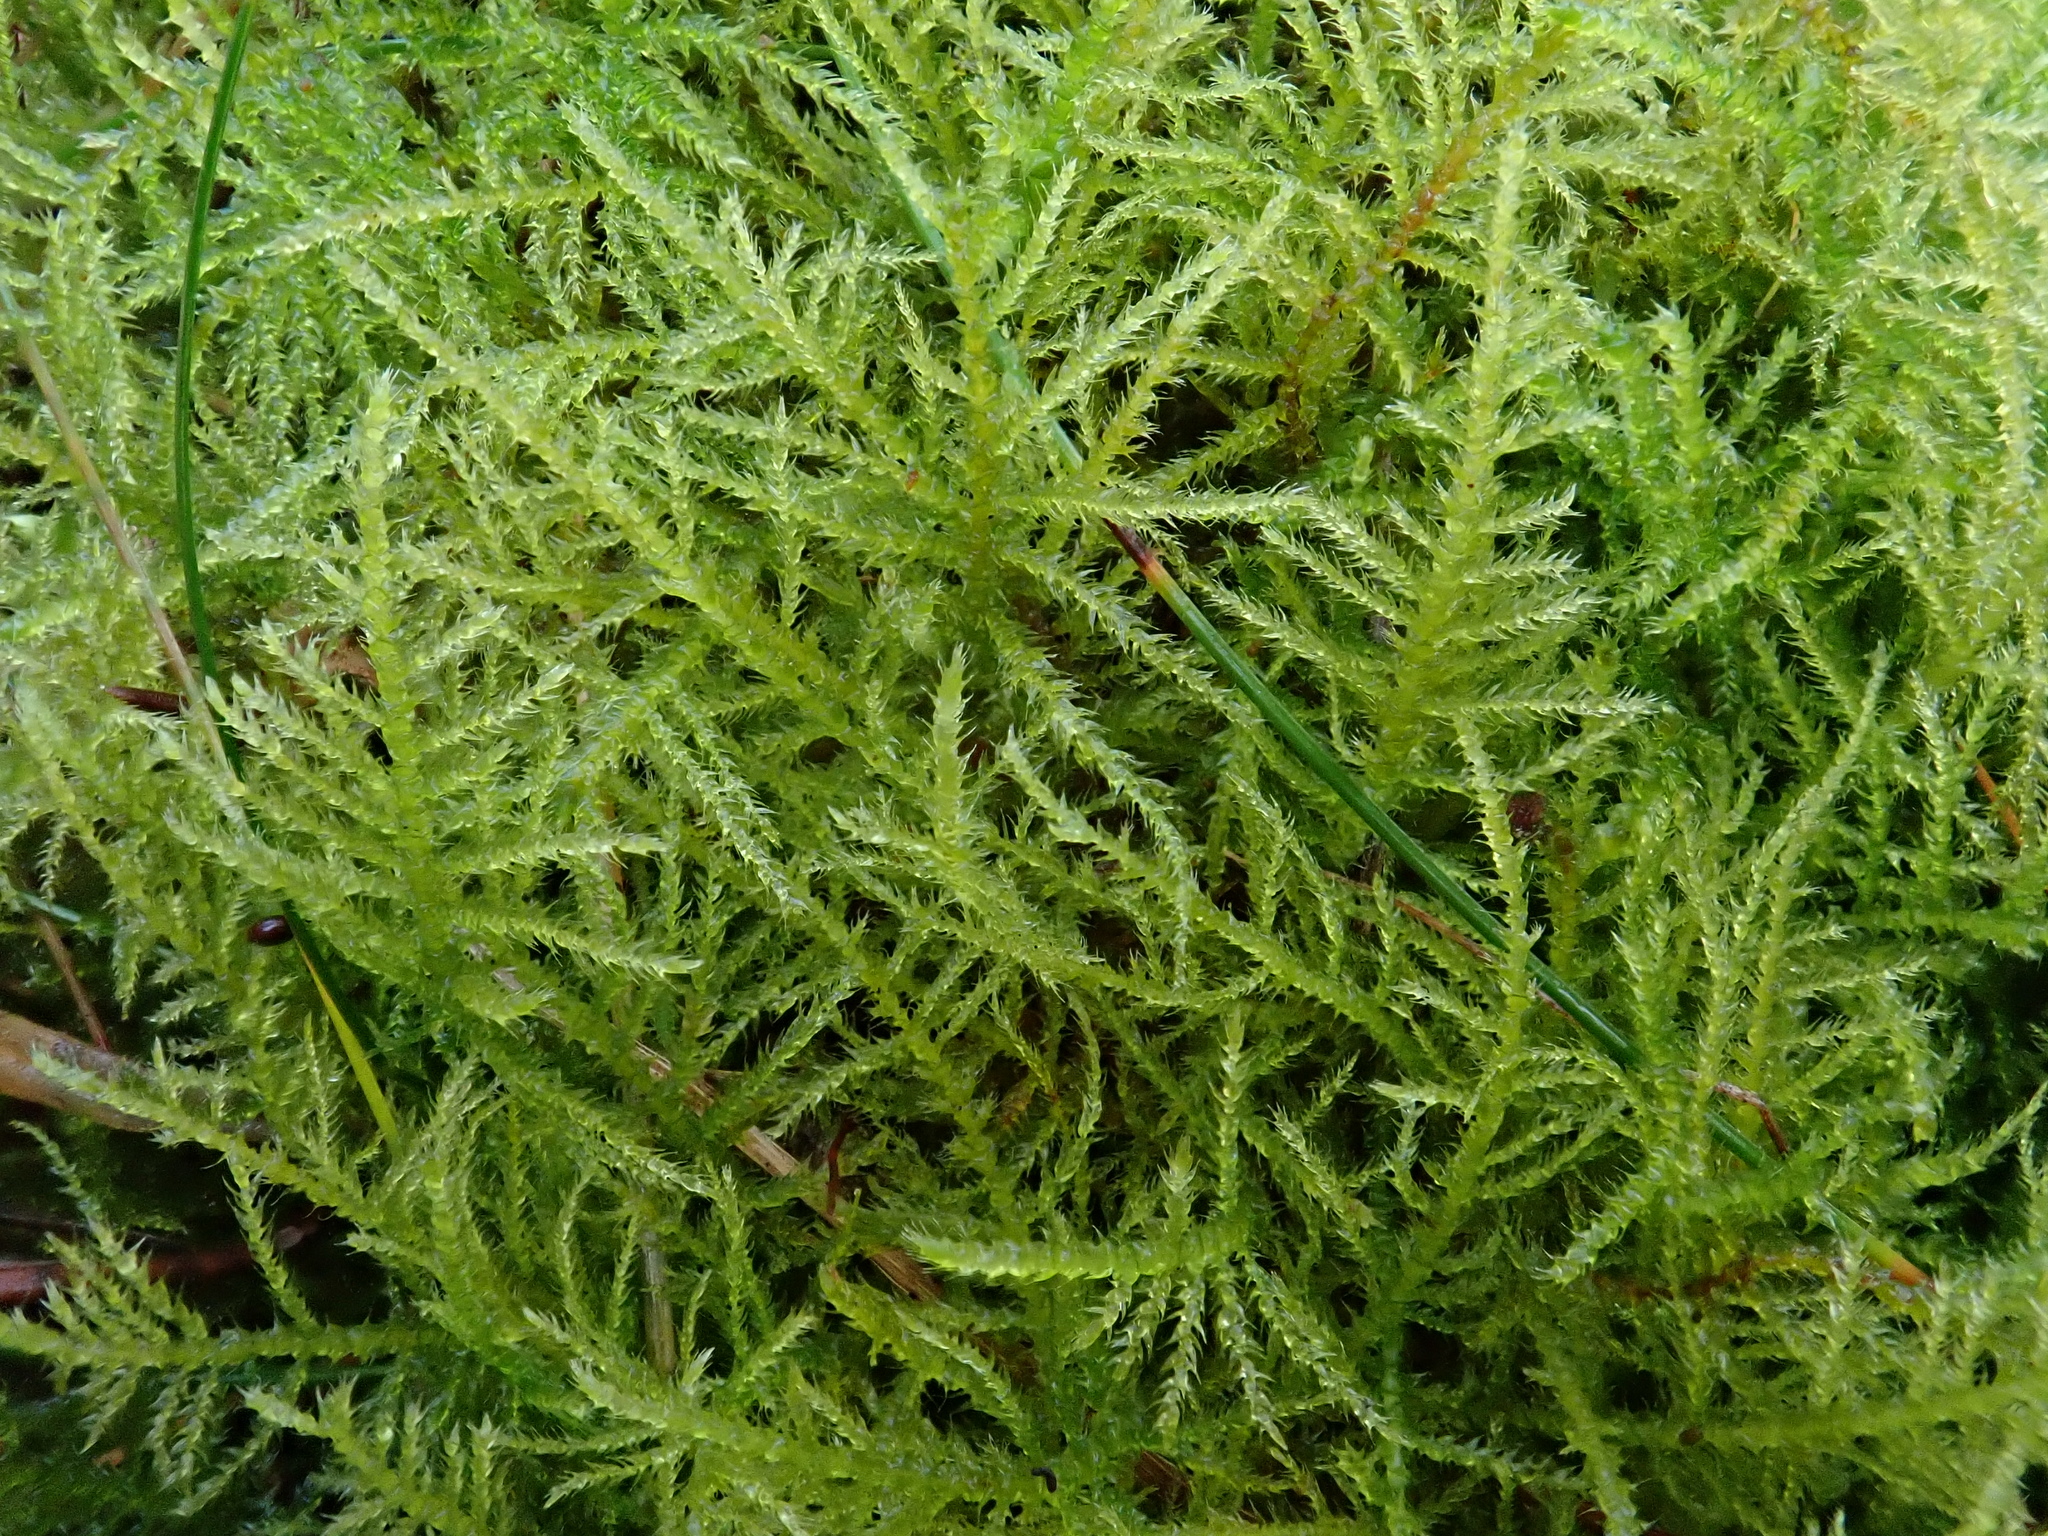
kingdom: Plantae
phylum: Bryophyta
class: Bryopsida
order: Hypnales
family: Brachytheciaceae
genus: Kindbergia
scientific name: Kindbergia praelonga
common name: Slender beaked moss
